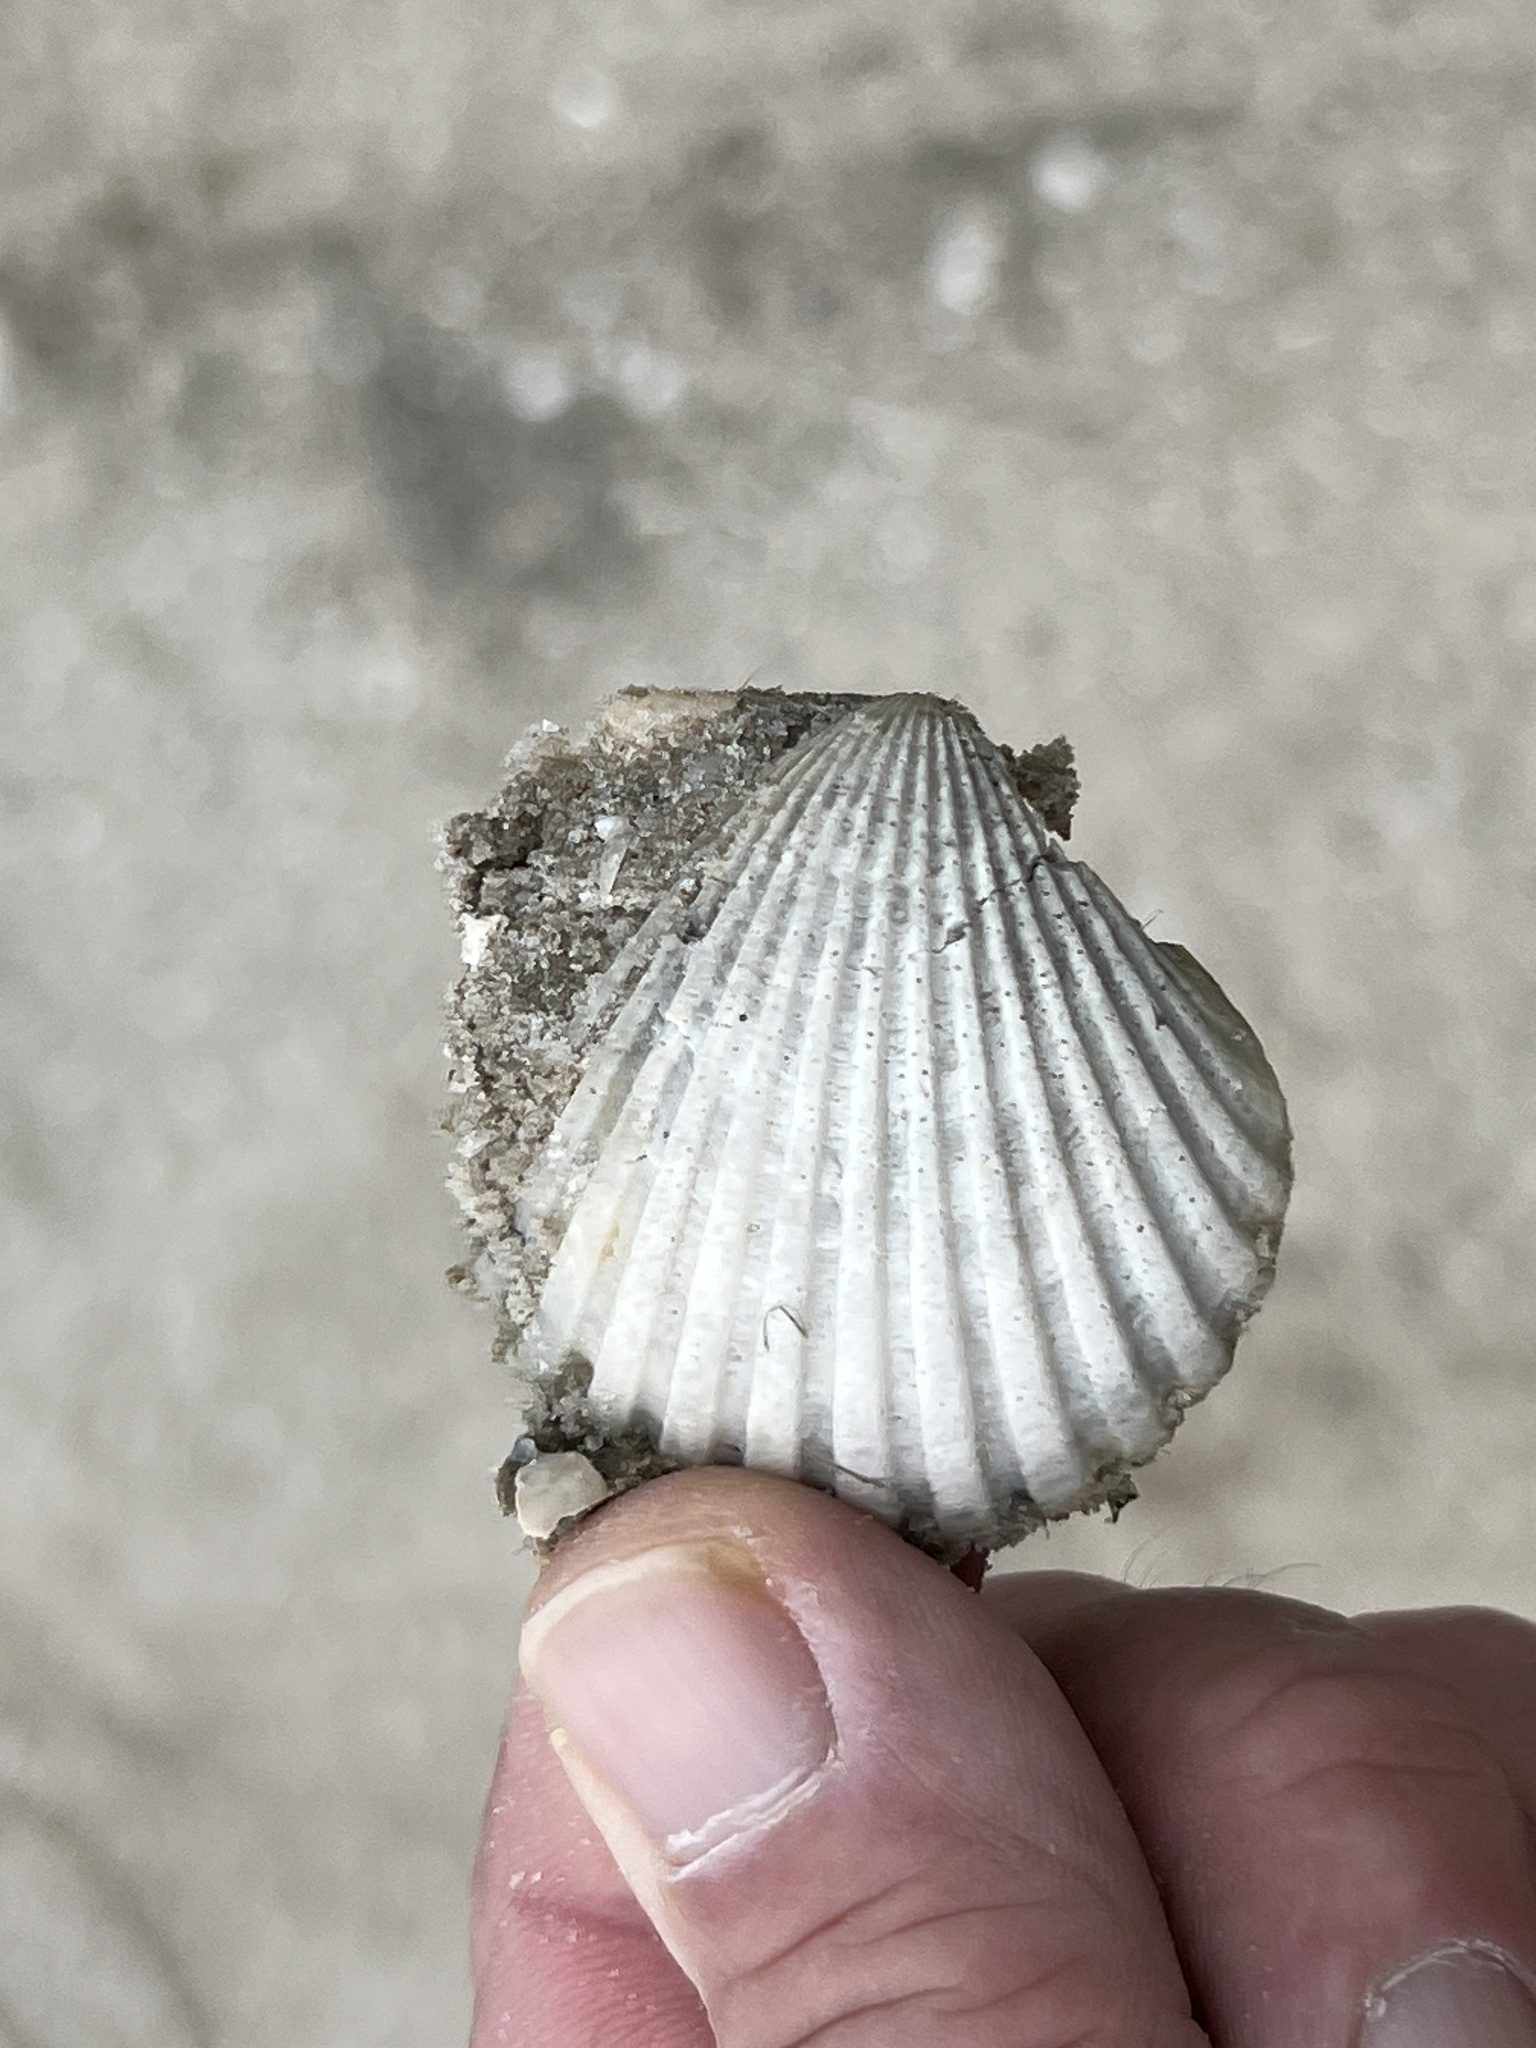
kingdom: Animalia
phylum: Mollusca
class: Bivalvia
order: Pectinida
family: Pectinidae
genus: Argopecten
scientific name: Argopecten irradians
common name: Atlantic bay scallop
